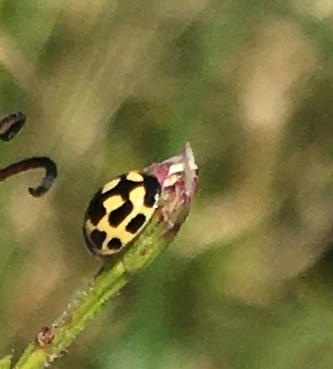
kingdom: Animalia
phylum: Arthropoda
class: Insecta
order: Coleoptera
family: Coccinellidae
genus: Propylaea
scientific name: Propylaea quatuordecimpunctata
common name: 14-spotted ladybird beetle
